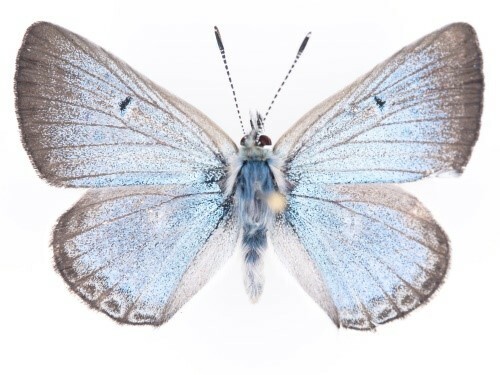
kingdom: Animalia
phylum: Arthropoda
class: Insecta
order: Lepidoptera
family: Lycaenidae
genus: Agriades
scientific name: Agriades glandon
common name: Glandon blue
